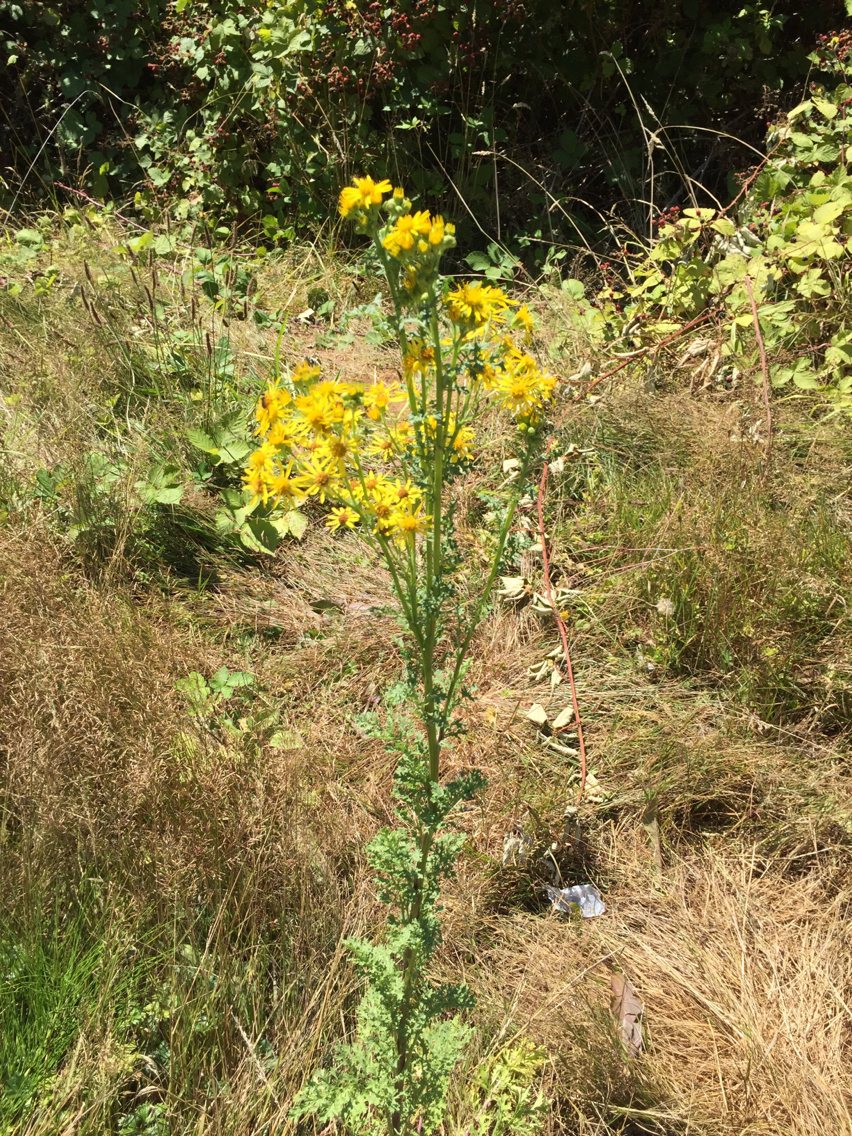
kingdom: Plantae
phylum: Tracheophyta
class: Magnoliopsida
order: Asterales
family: Asteraceae
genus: Jacobaea
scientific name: Jacobaea vulgaris
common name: Stinking willie
